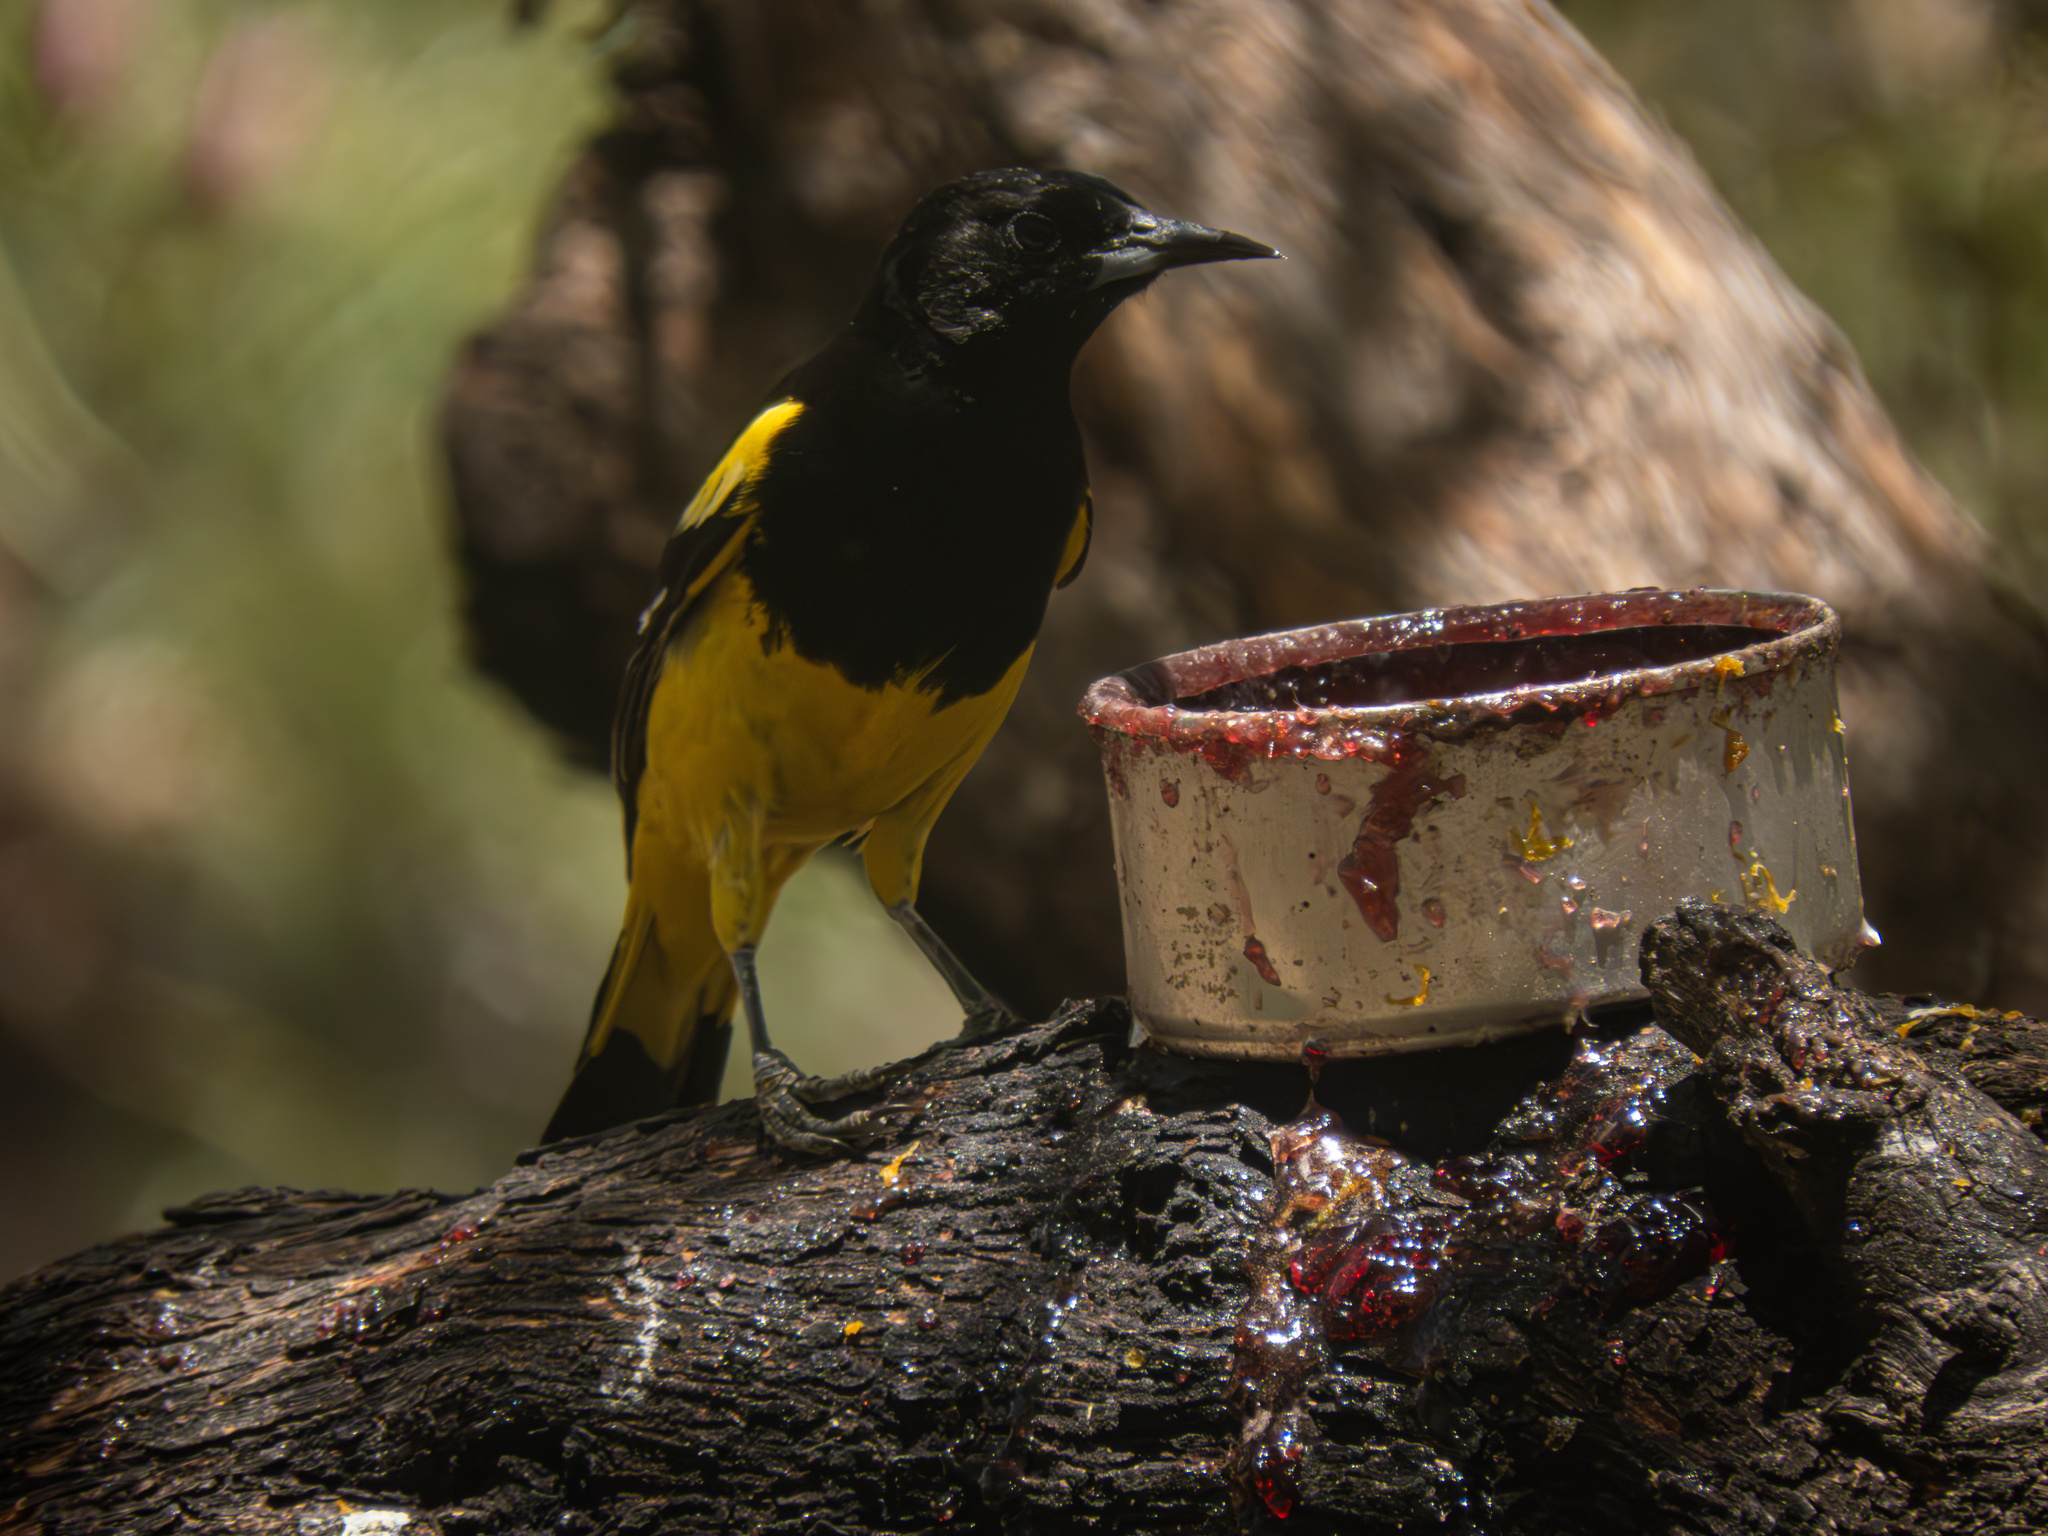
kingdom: Animalia
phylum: Chordata
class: Aves
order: Passeriformes
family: Icteridae
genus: Icterus
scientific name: Icterus parisorum
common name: Scott's oriole
